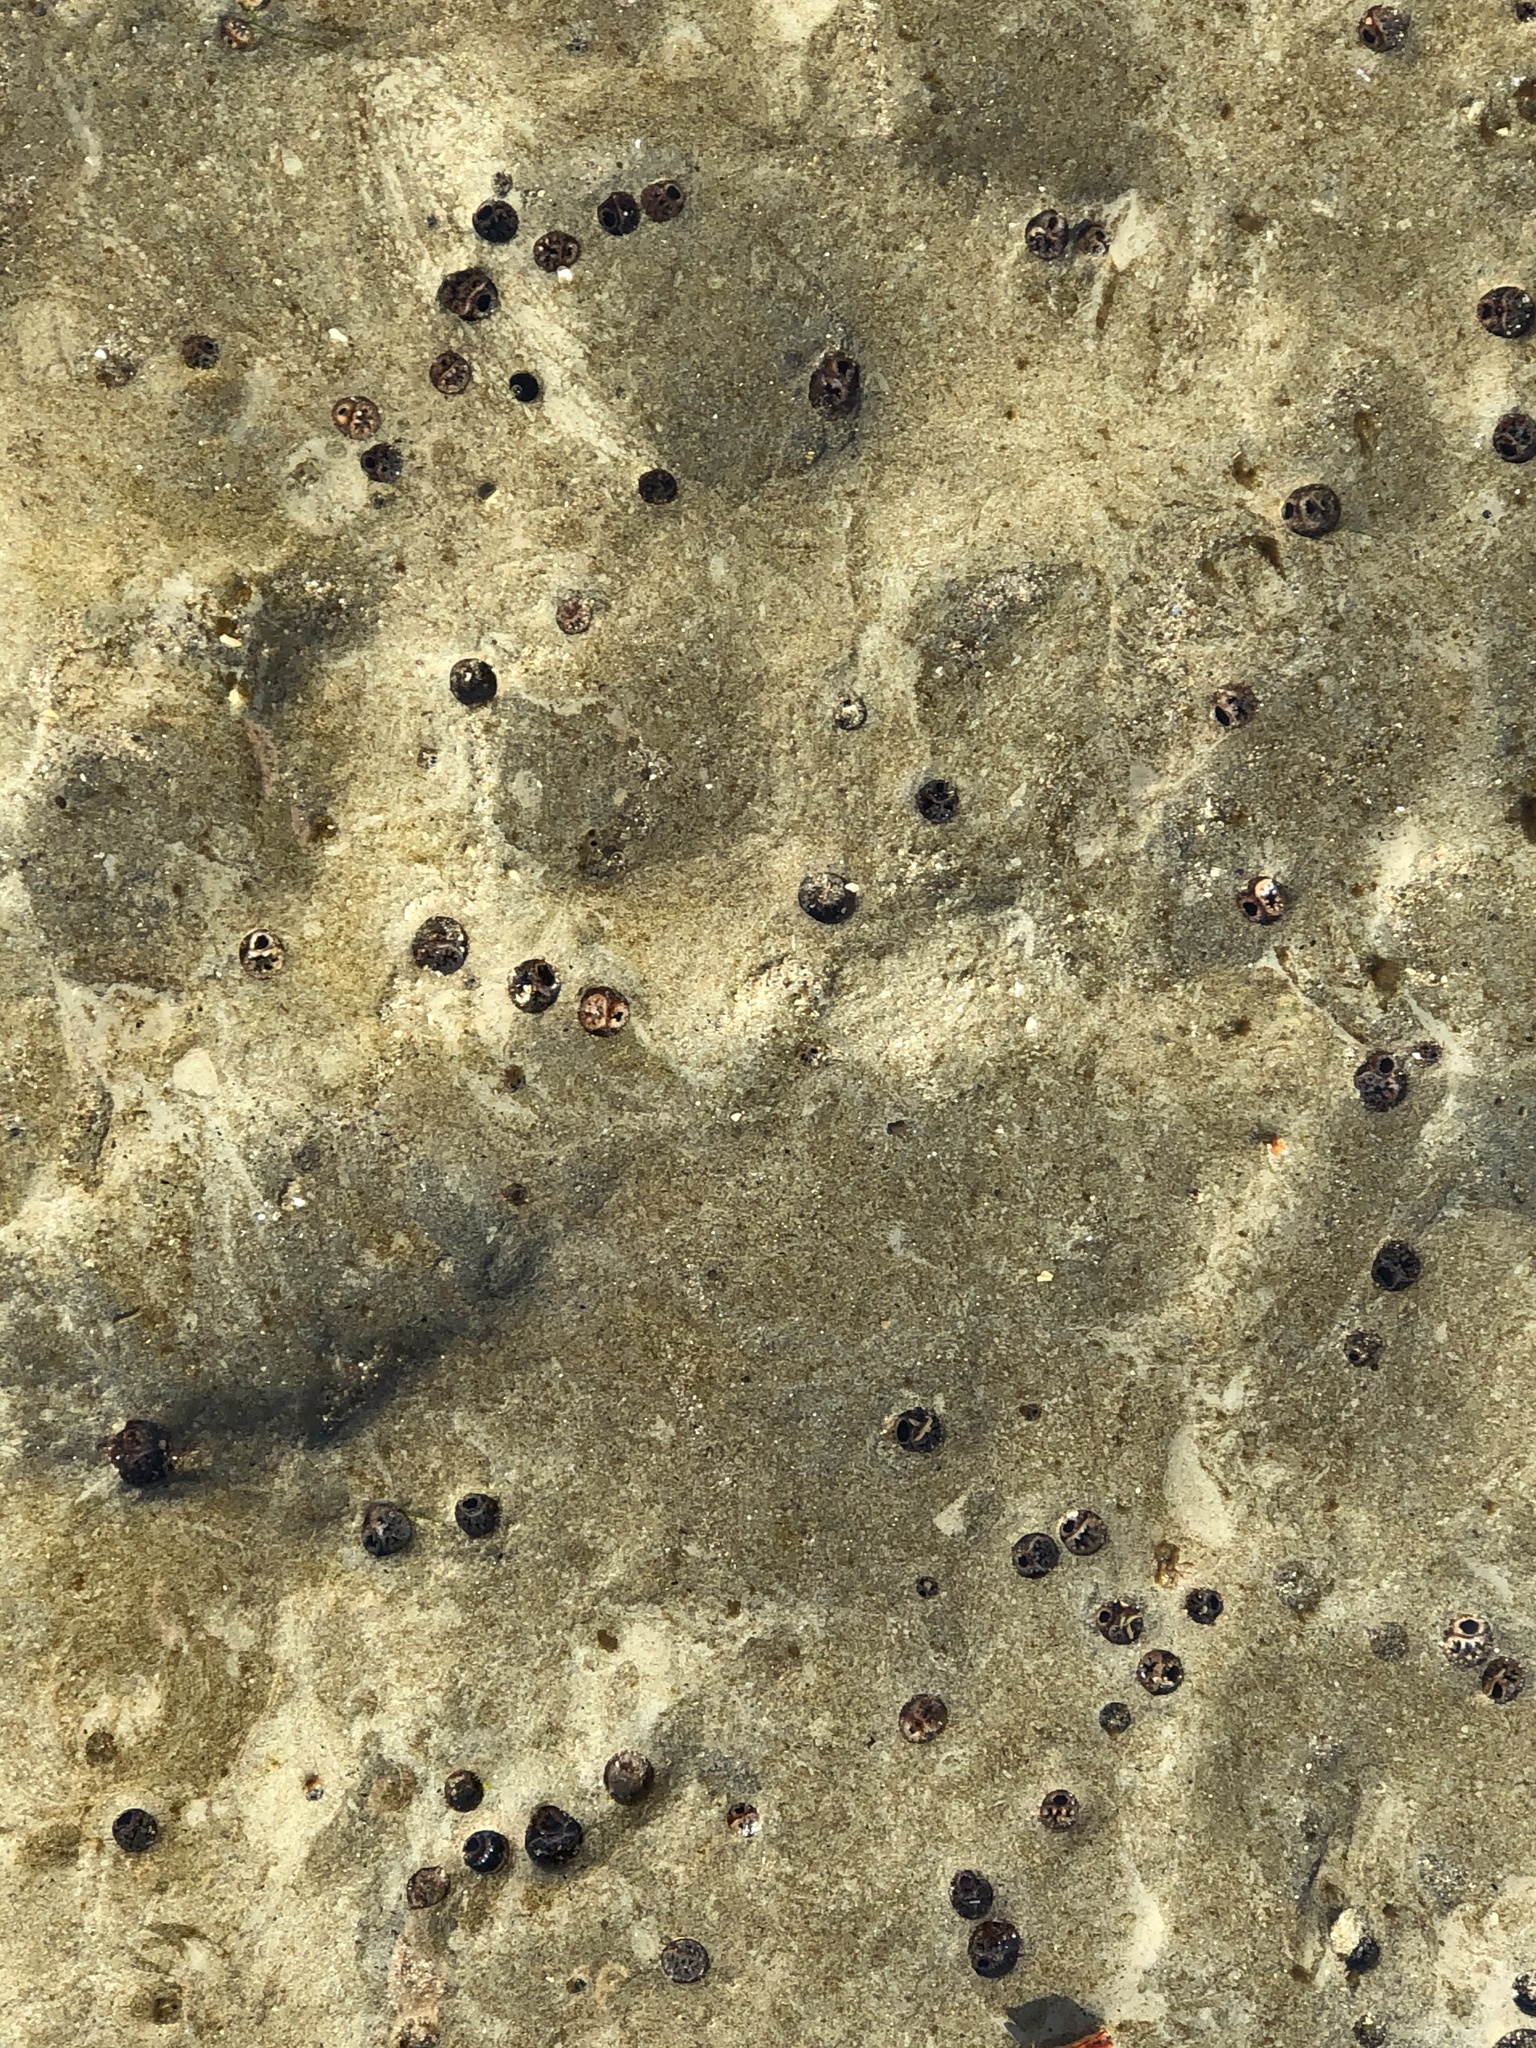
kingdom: Animalia
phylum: Mollusca
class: Bivalvia
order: Myida
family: Pholadidae
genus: Parapholas
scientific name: Parapholas californica
